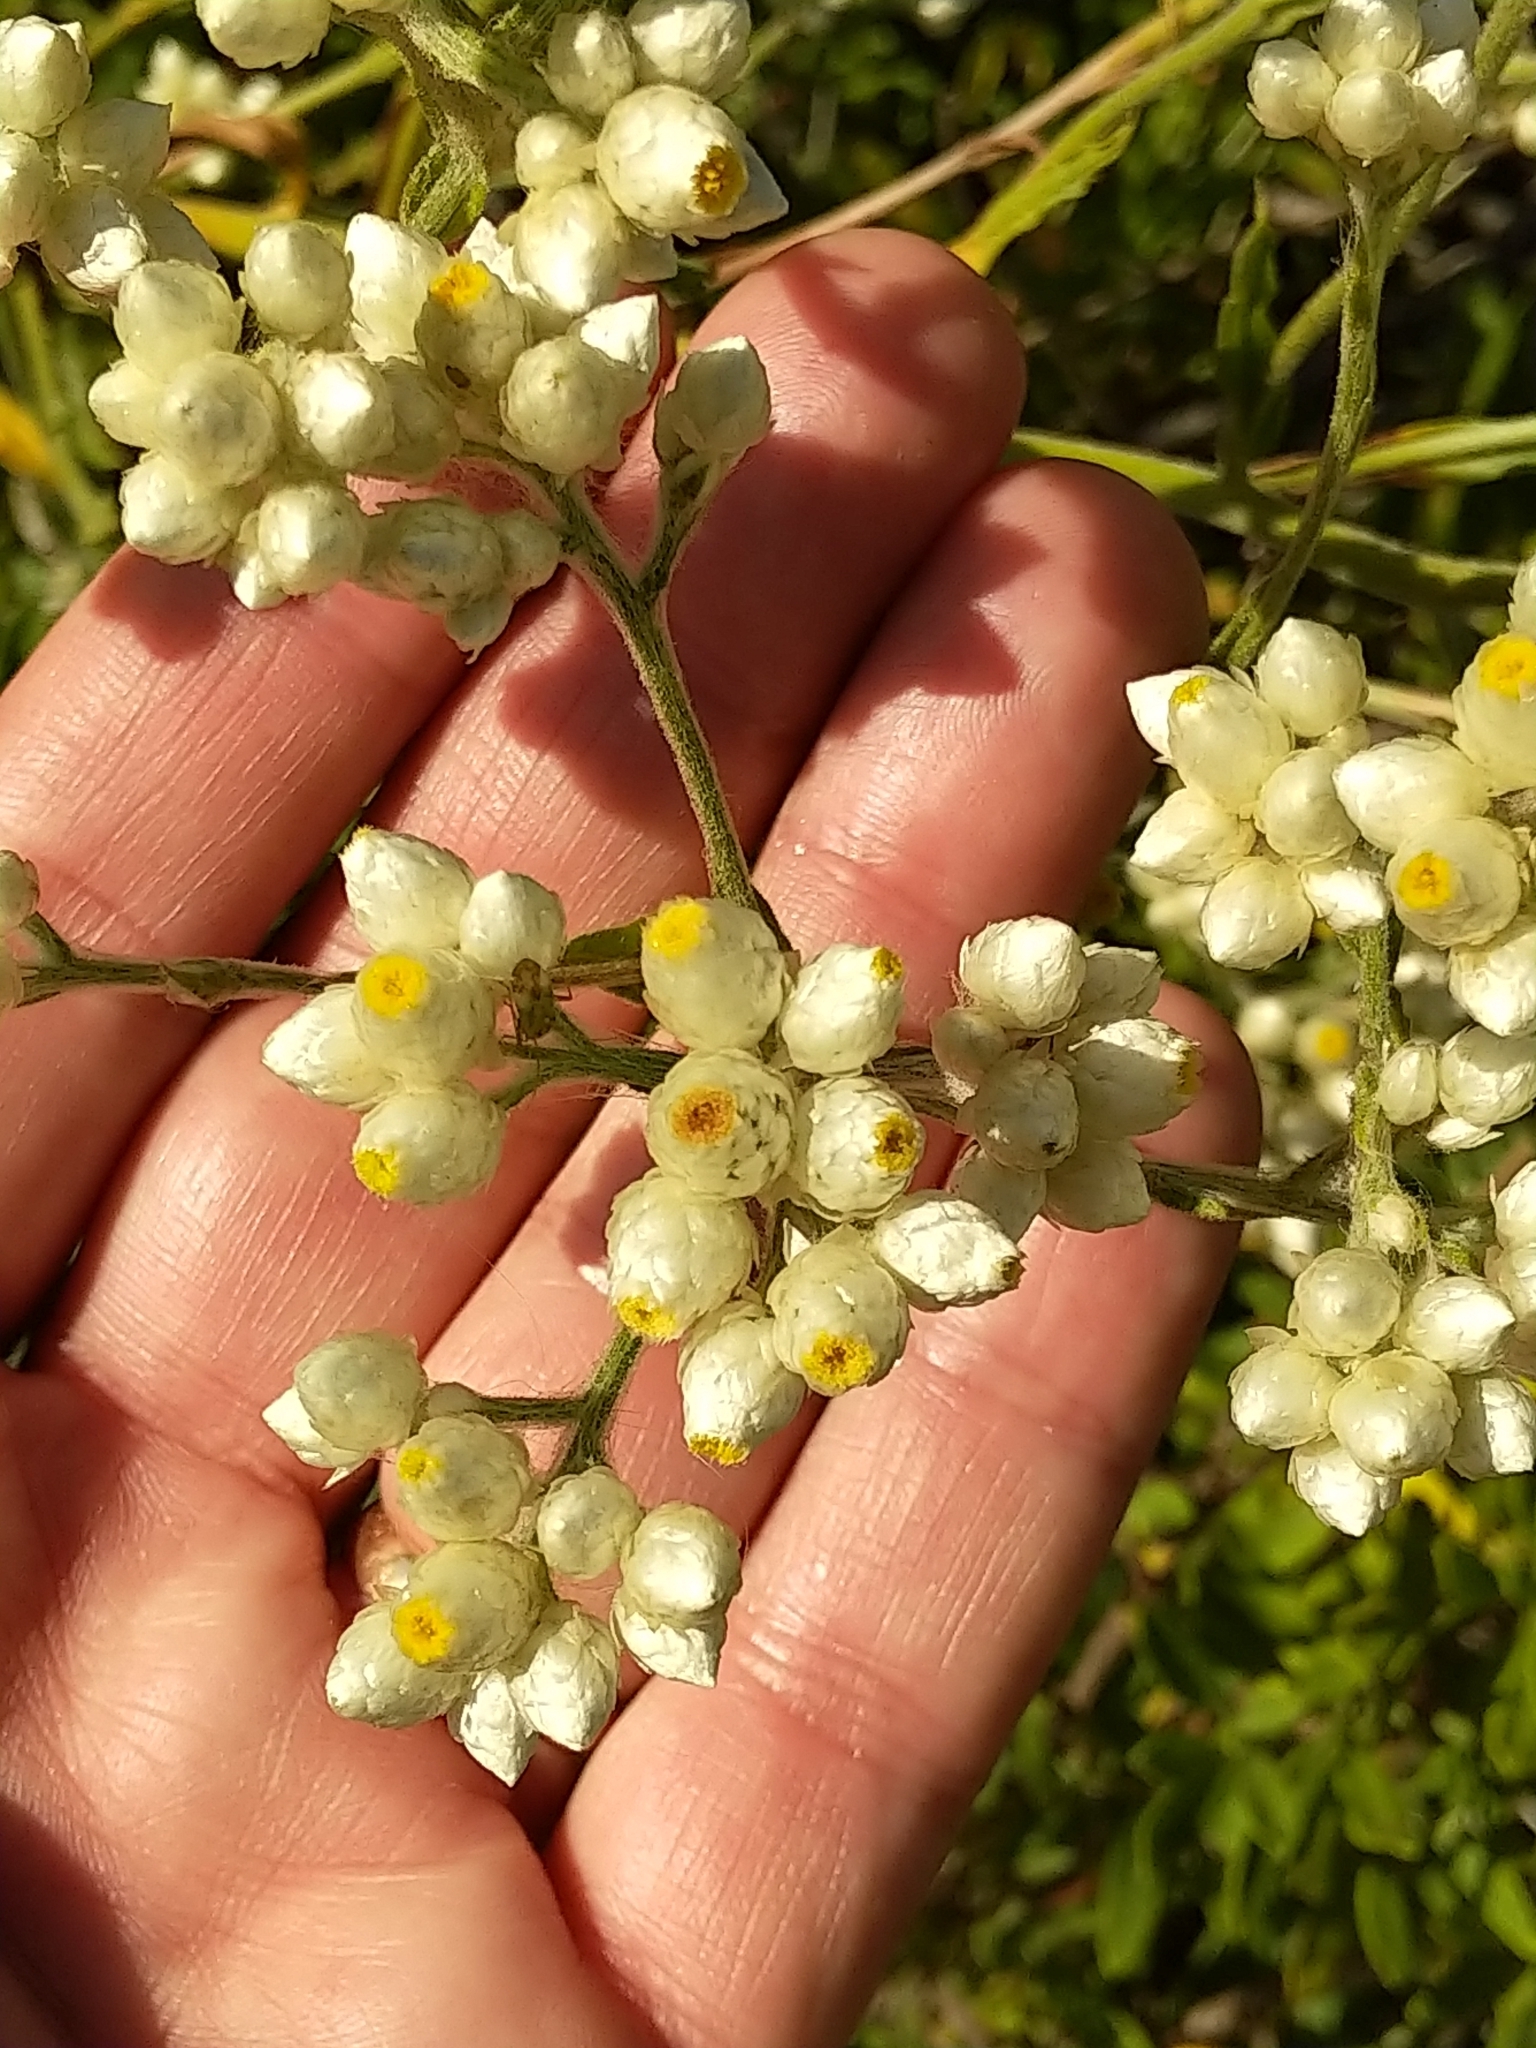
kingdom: Plantae
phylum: Tracheophyta
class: Magnoliopsida
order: Asterales
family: Asteraceae
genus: Pseudognaphalium
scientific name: Pseudognaphalium californicum
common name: California rabbit-tobacco
